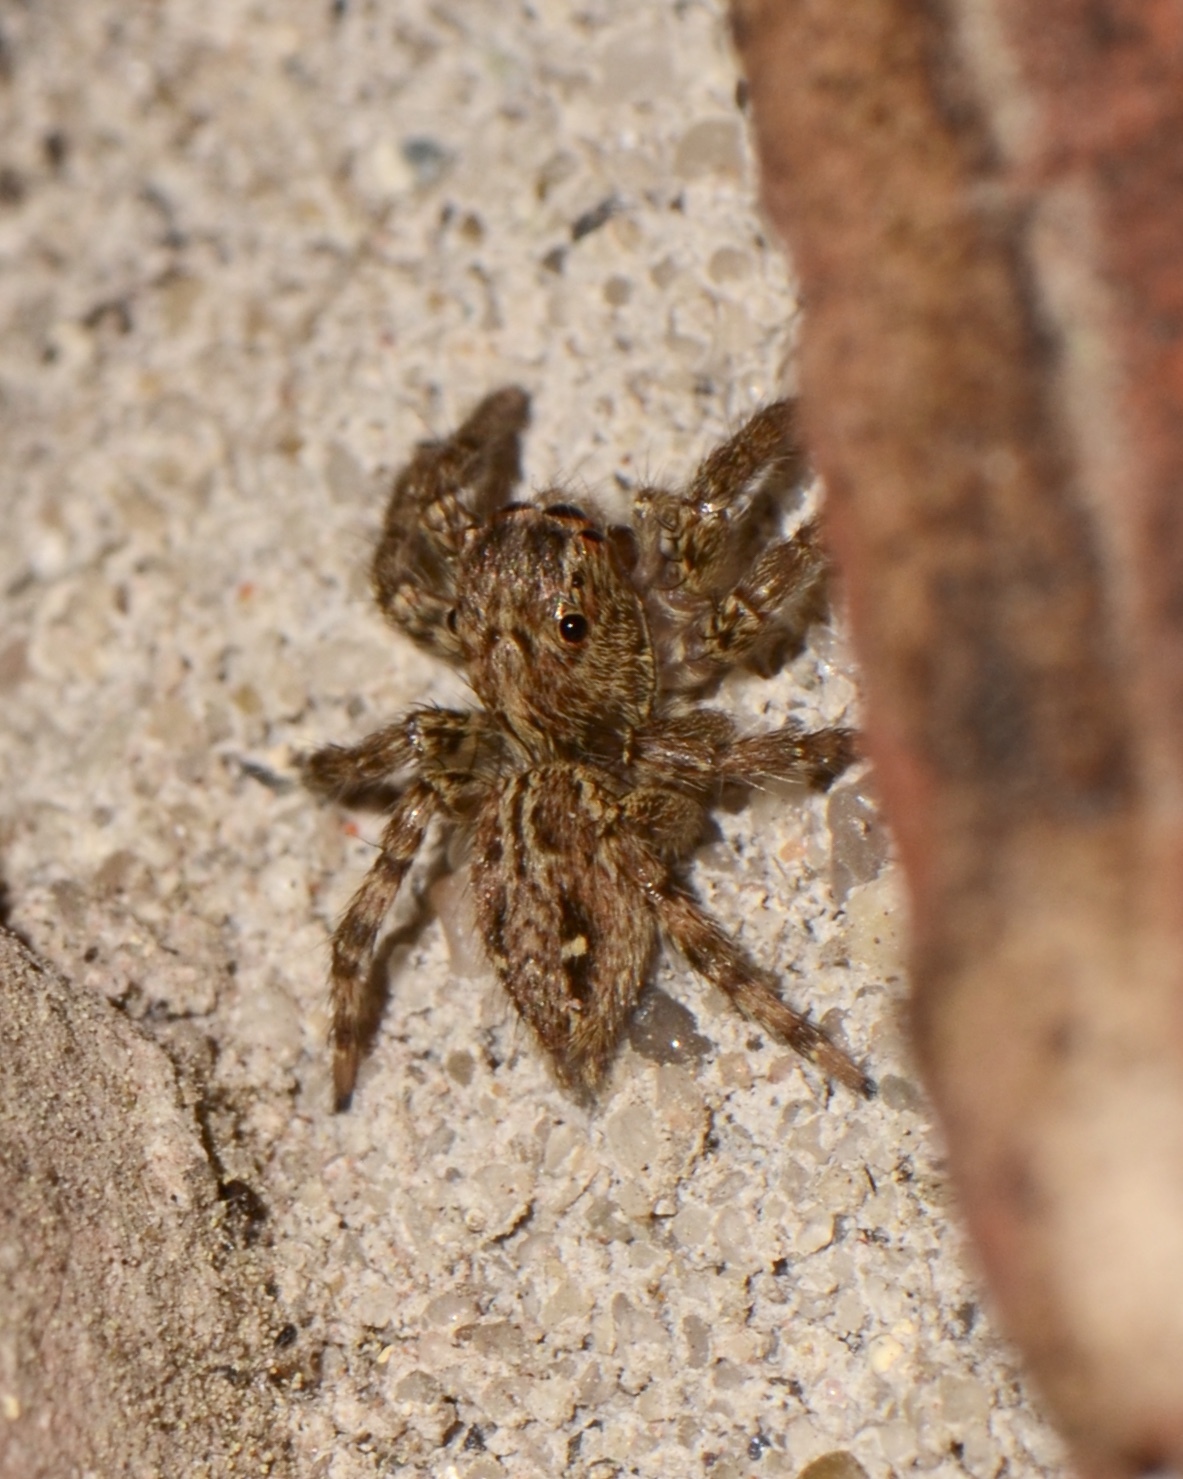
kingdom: Animalia
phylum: Arthropoda
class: Arachnida
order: Araneae
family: Salticidae
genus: Plexippus
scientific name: Plexippus paykulli
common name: Pantropical jumper
